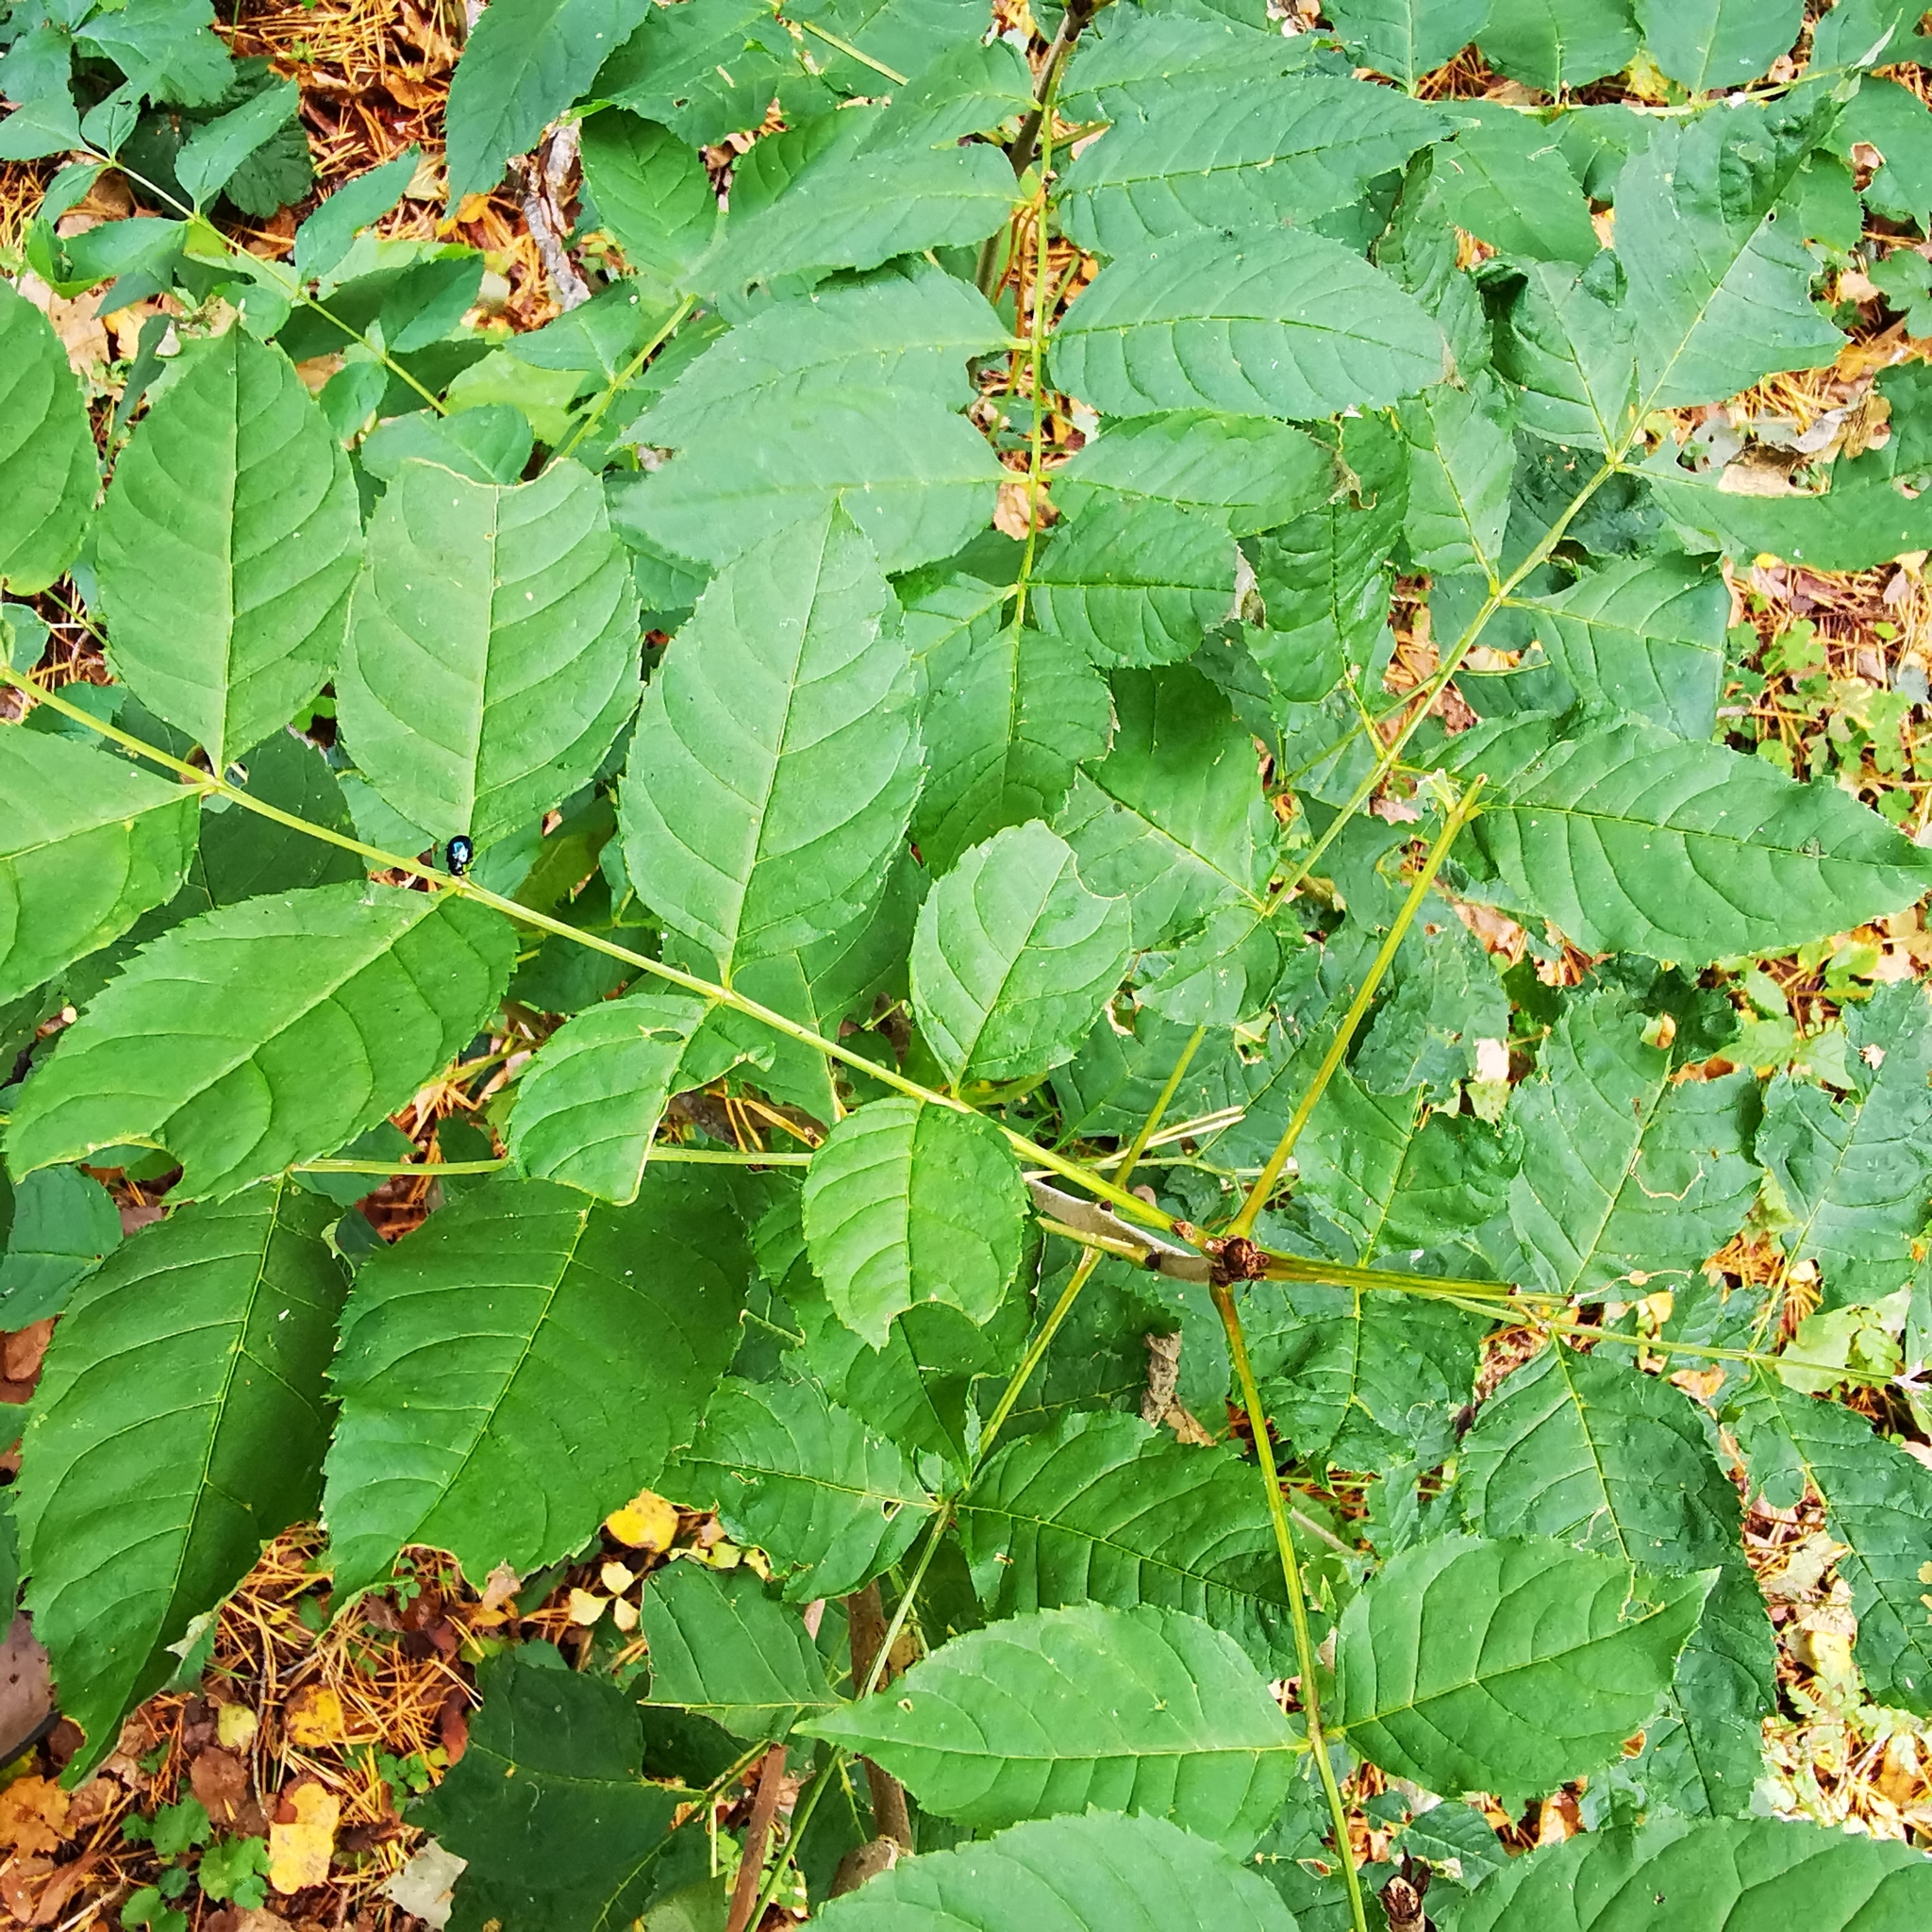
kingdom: Plantae
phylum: Tracheophyta
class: Magnoliopsida
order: Lamiales
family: Oleaceae
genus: Fraxinus
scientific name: Fraxinus excelsior
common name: European ash
